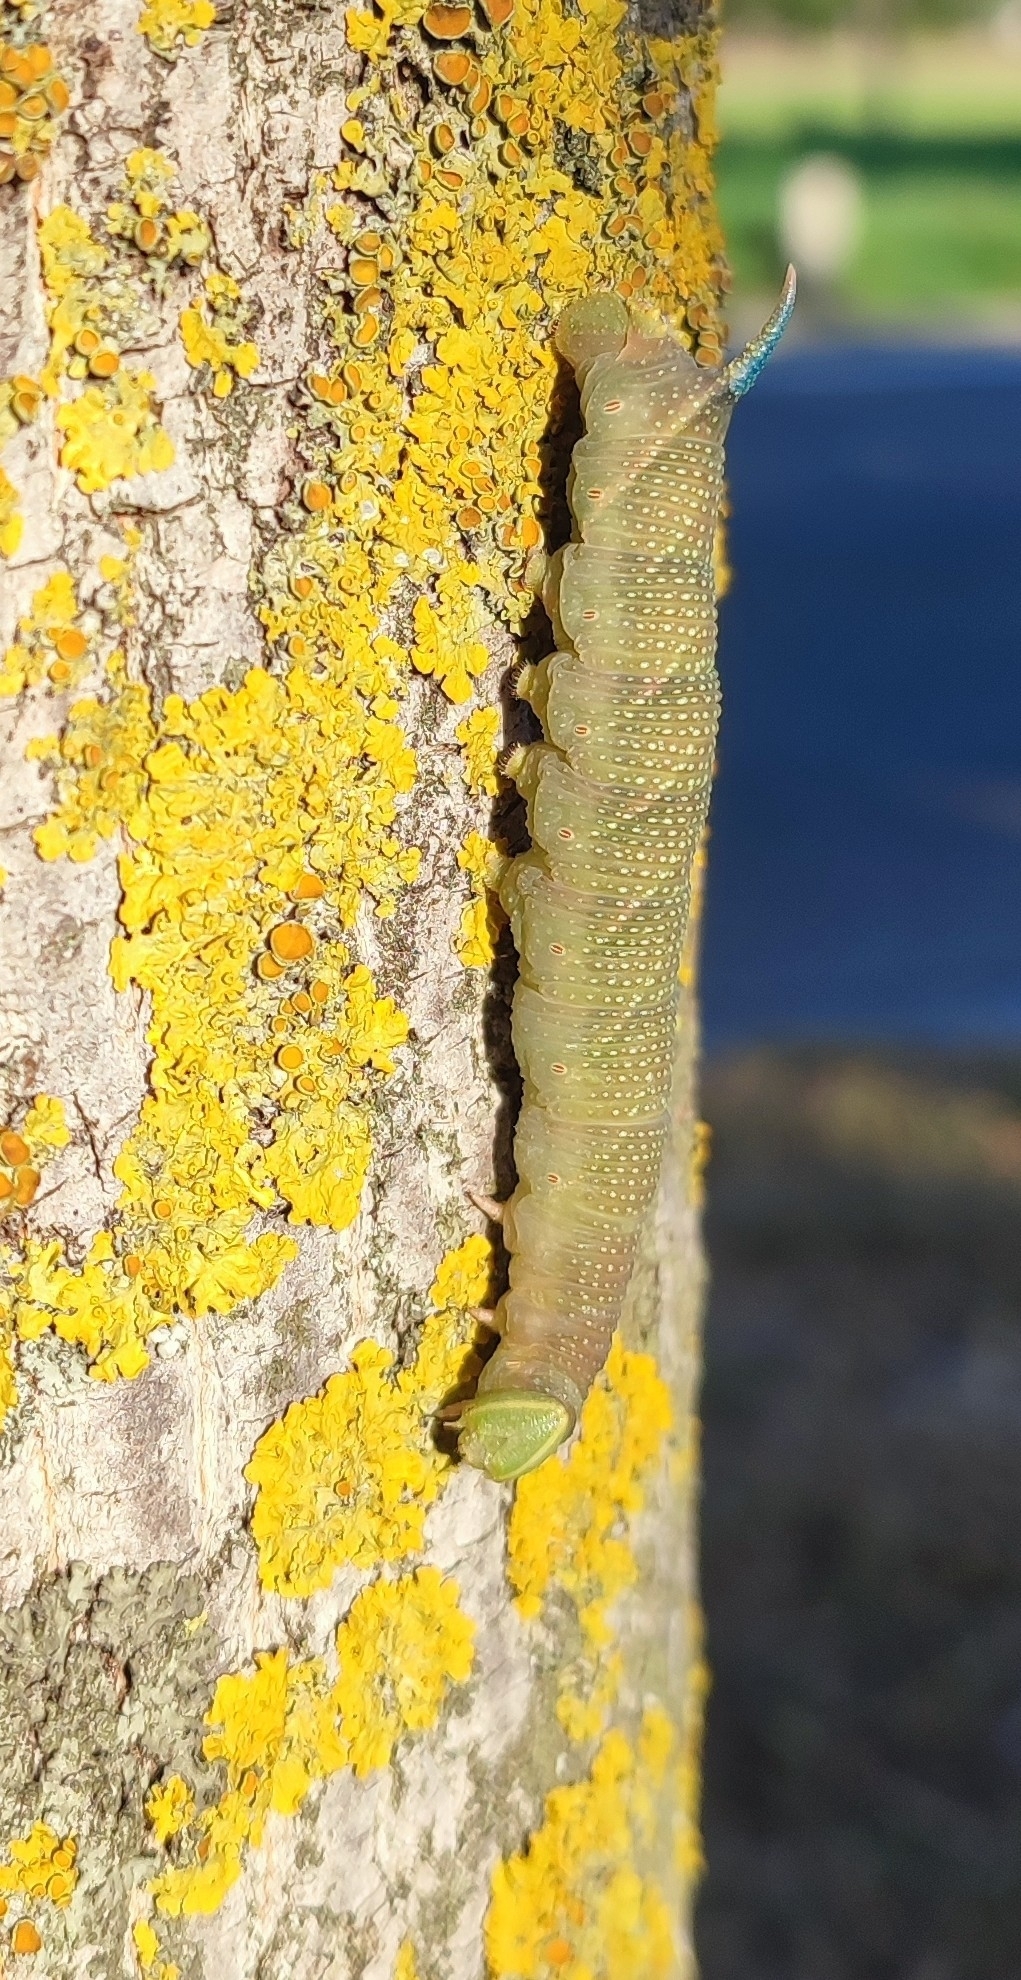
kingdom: Animalia
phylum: Arthropoda
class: Insecta
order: Lepidoptera
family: Sphingidae
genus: Mimas
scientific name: Mimas tiliae
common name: Lime hawk-moth
